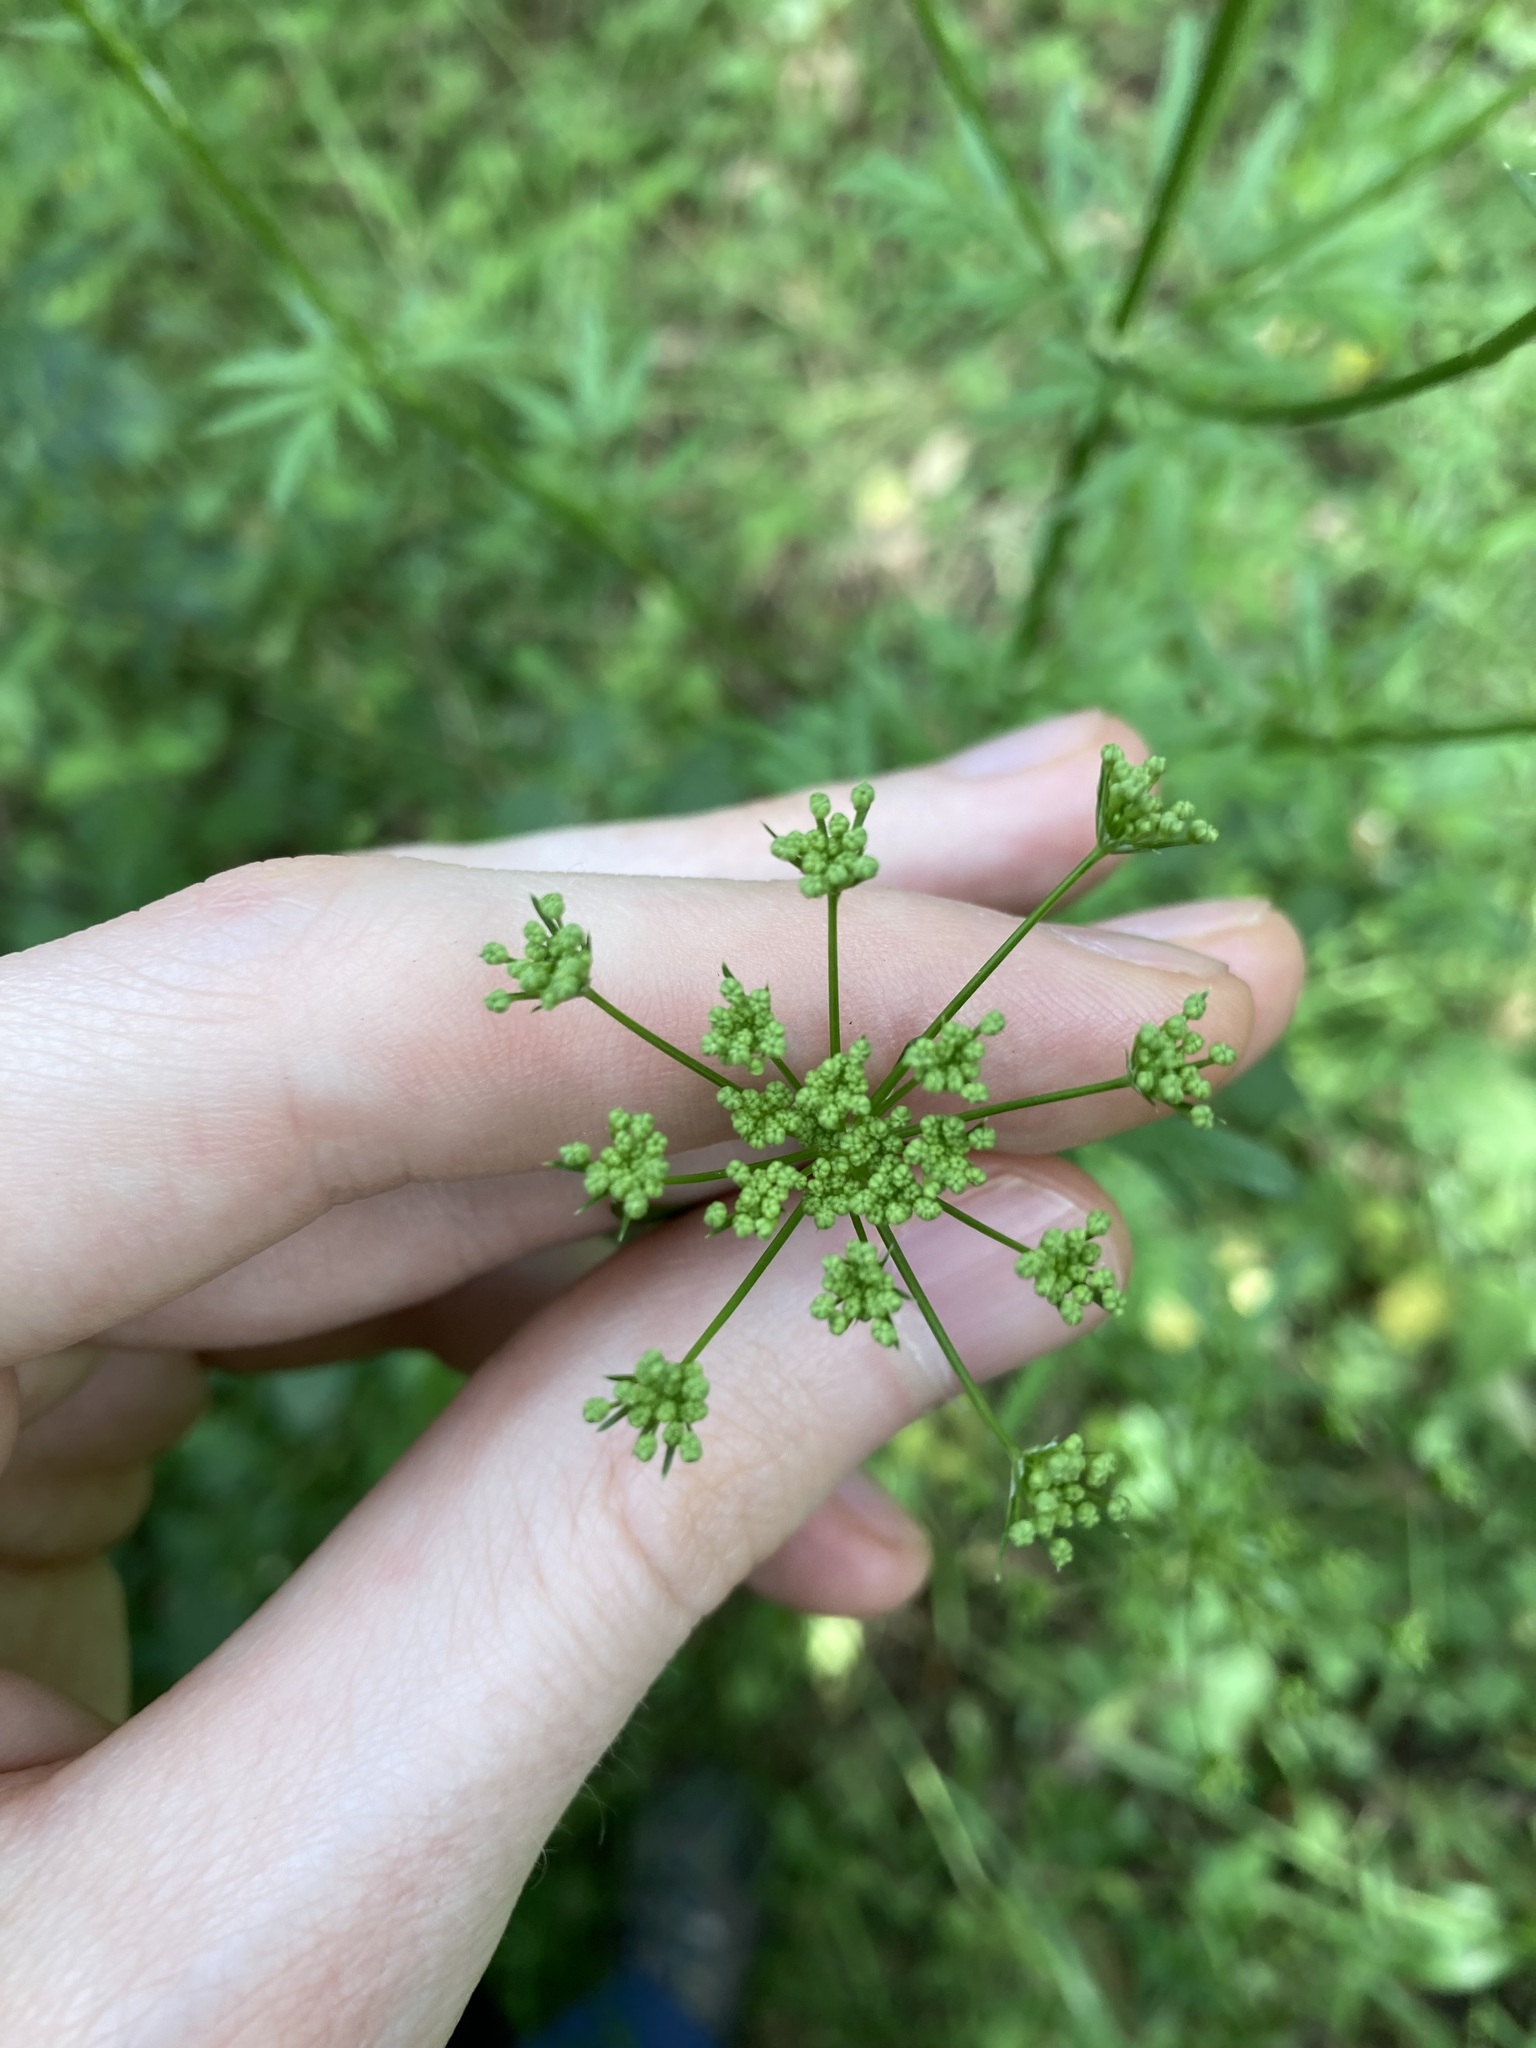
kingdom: Plantae
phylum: Tracheophyta
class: Magnoliopsida
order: Apiales
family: Apiaceae
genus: Petroselinum
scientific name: Petroselinum crispum
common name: Parsley
